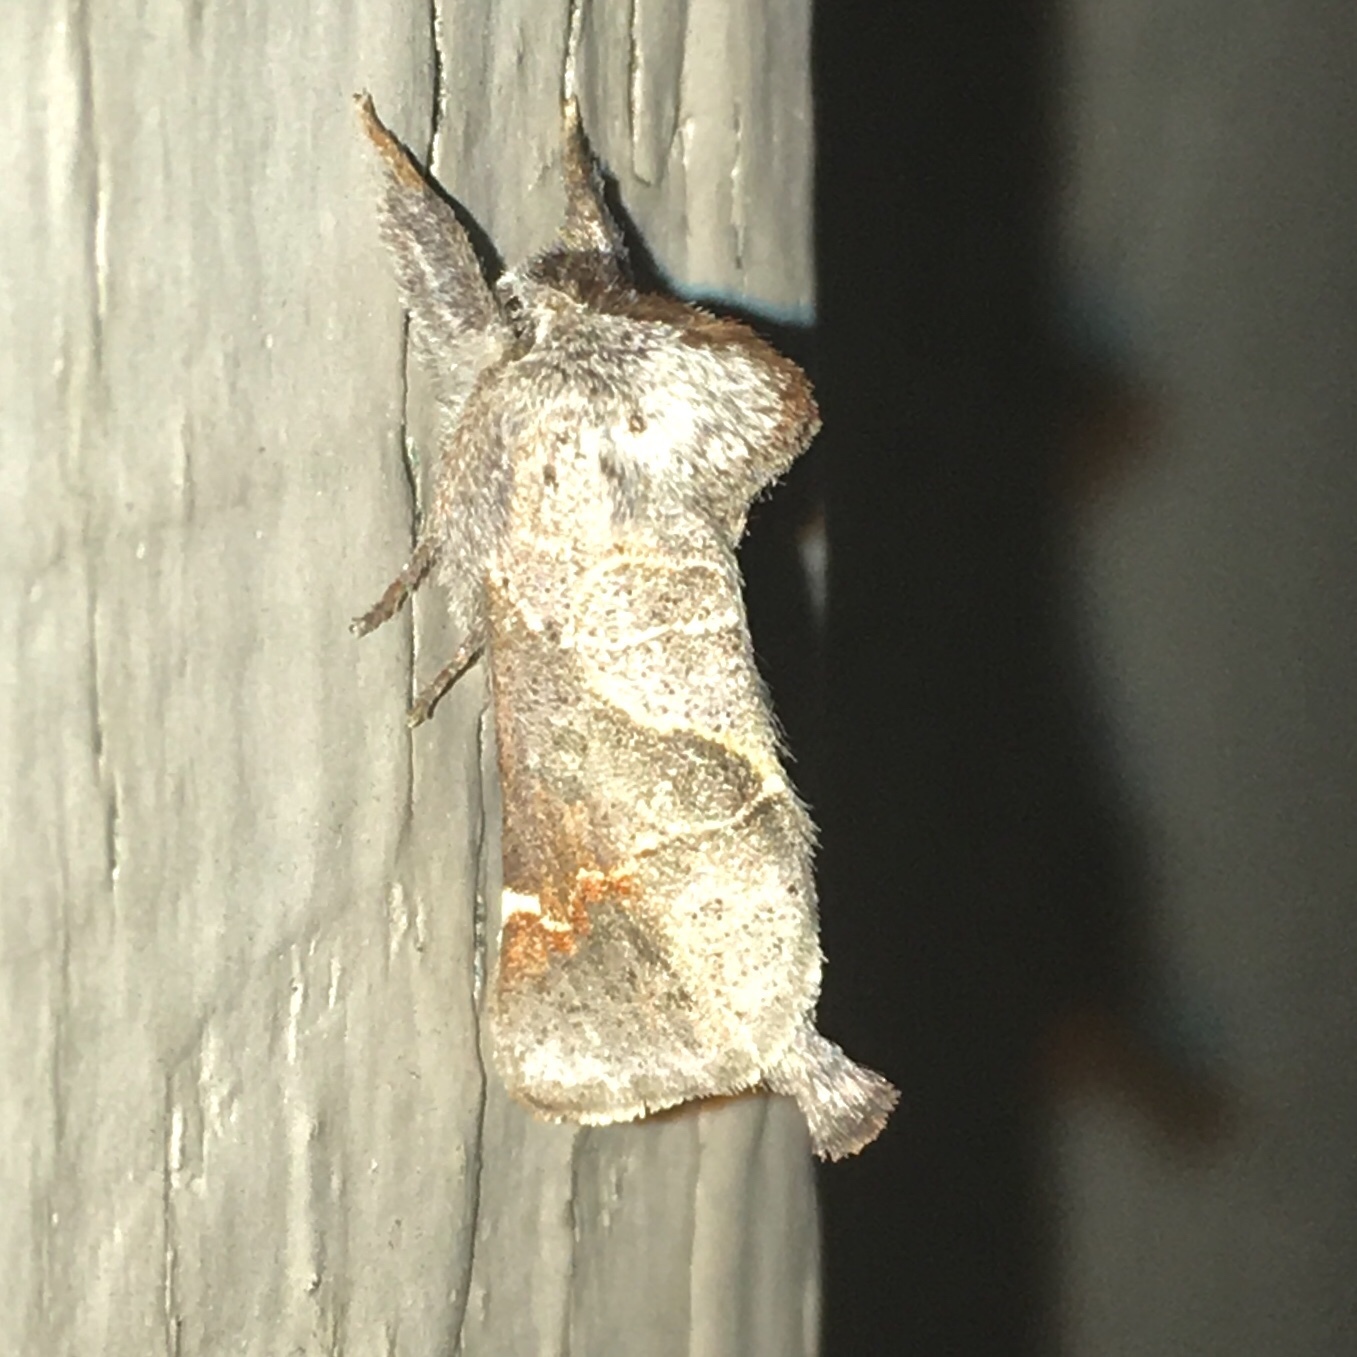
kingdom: Animalia
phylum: Arthropoda
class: Insecta
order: Lepidoptera
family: Notodontidae
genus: Clostera
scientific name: Clostera apicalis
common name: Apical prominent
